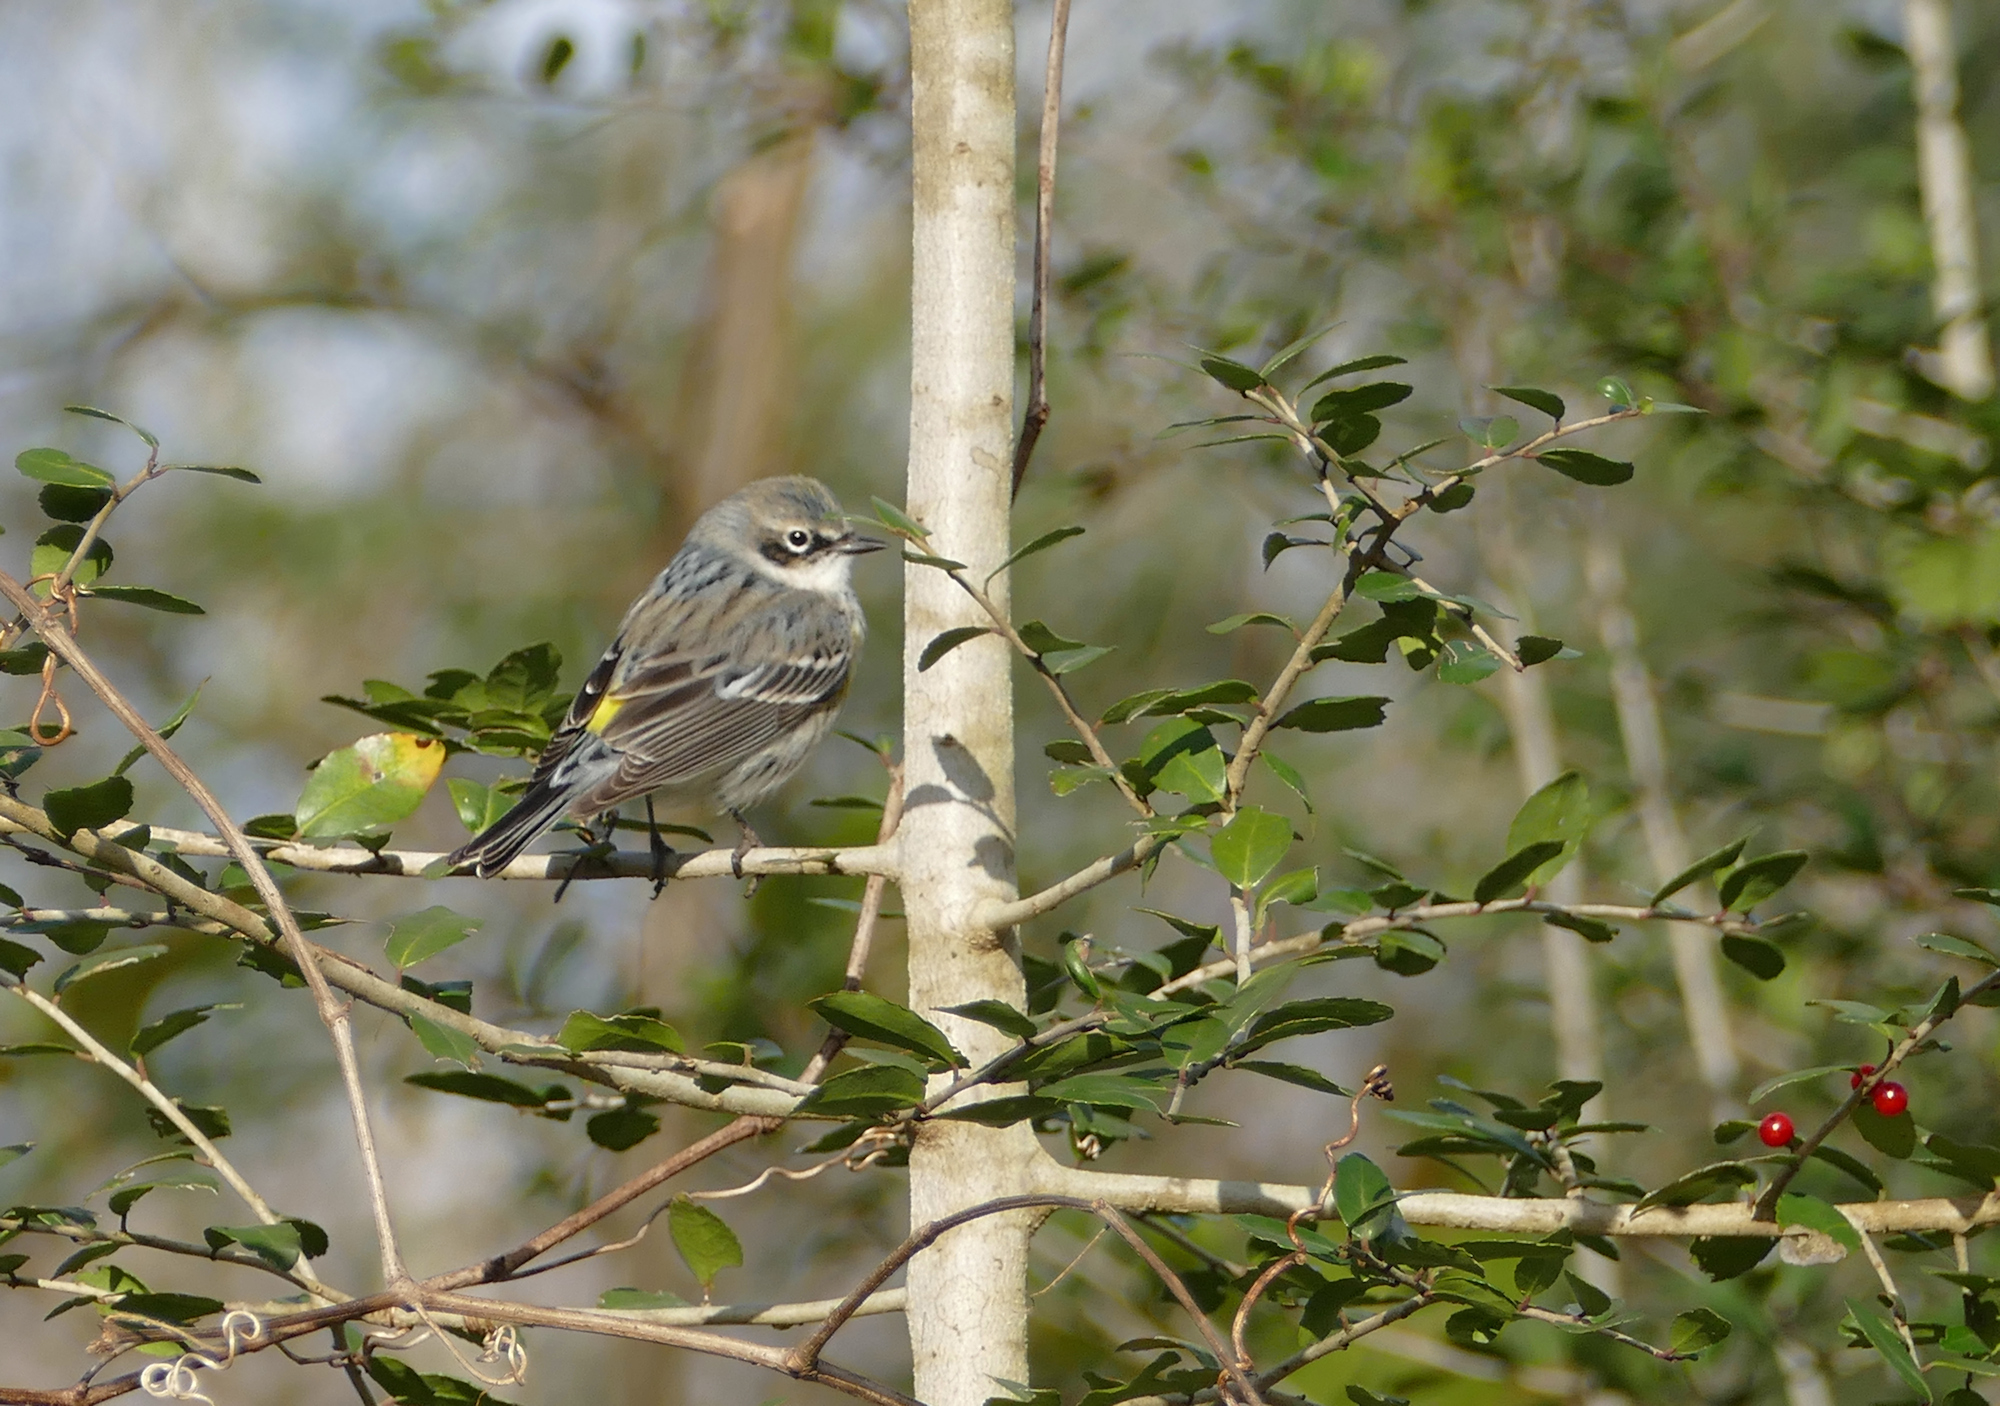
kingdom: Animalia
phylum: Chordata
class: Aves
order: Passeriformes
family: Parulidae
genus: Setophaga
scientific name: Setophaga coronata
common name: Myrtle warbler
